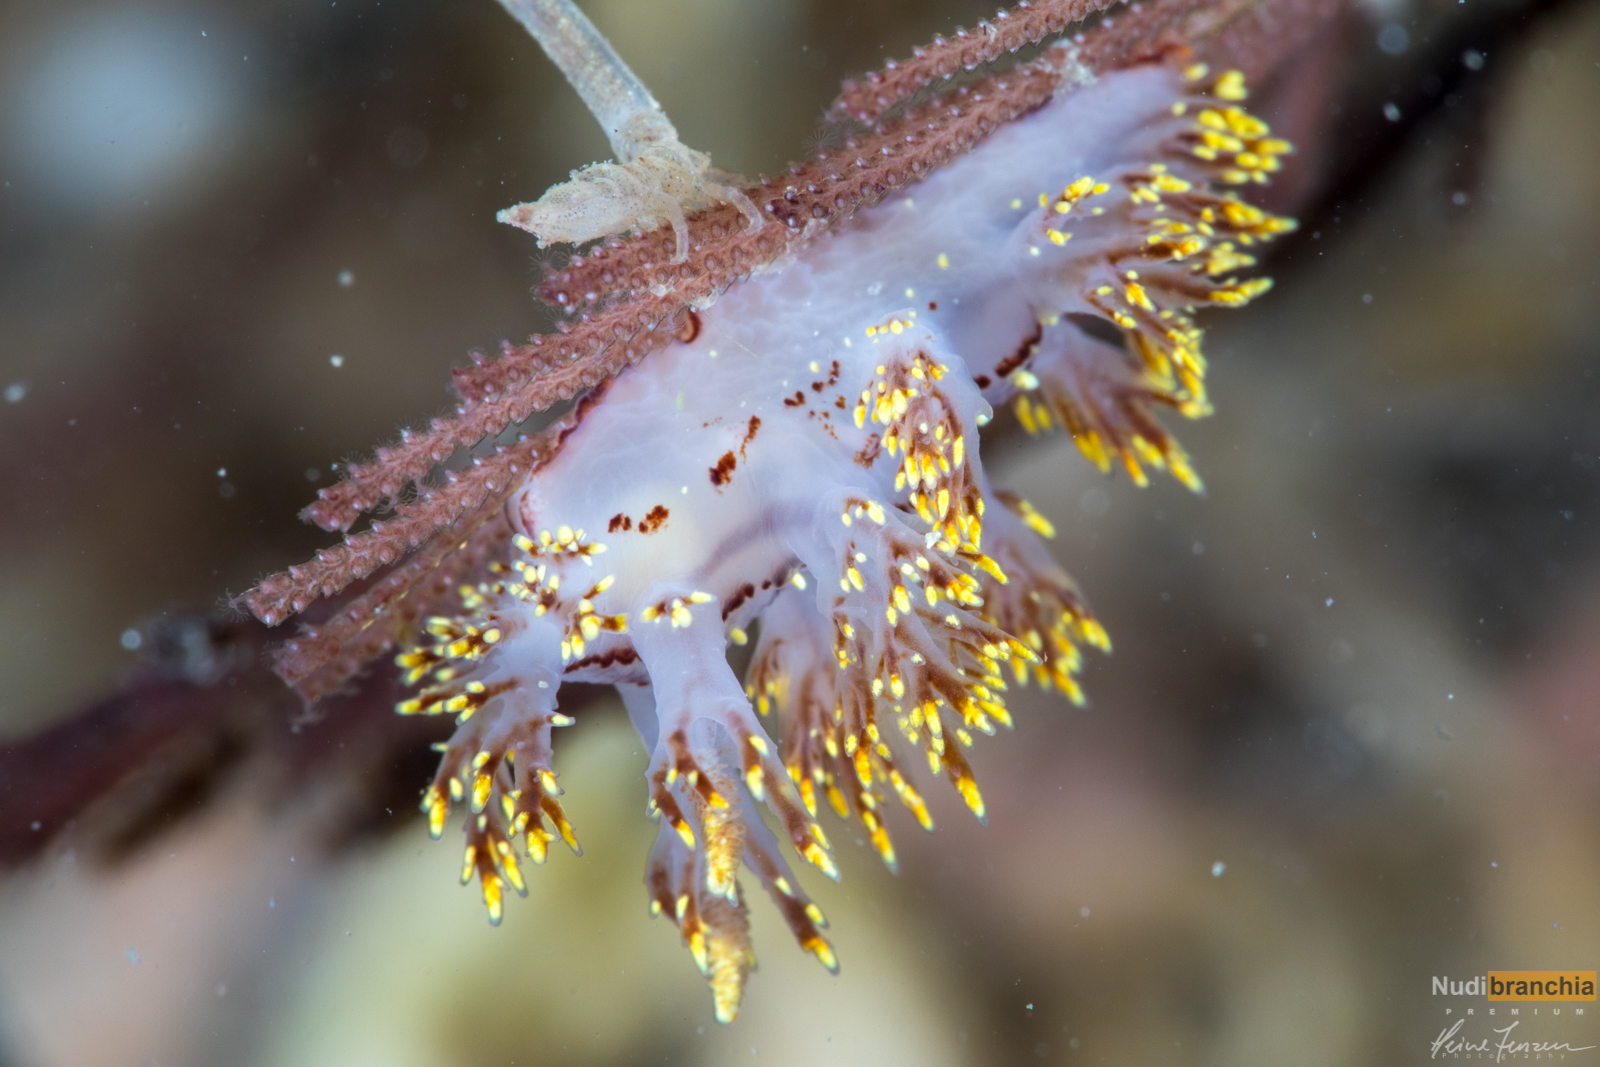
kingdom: Animalia
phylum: Mollusca
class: Gastropoda
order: Nudibranchia
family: Dendronotidae
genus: Dendronotus
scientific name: Dendronotus yrjargul
